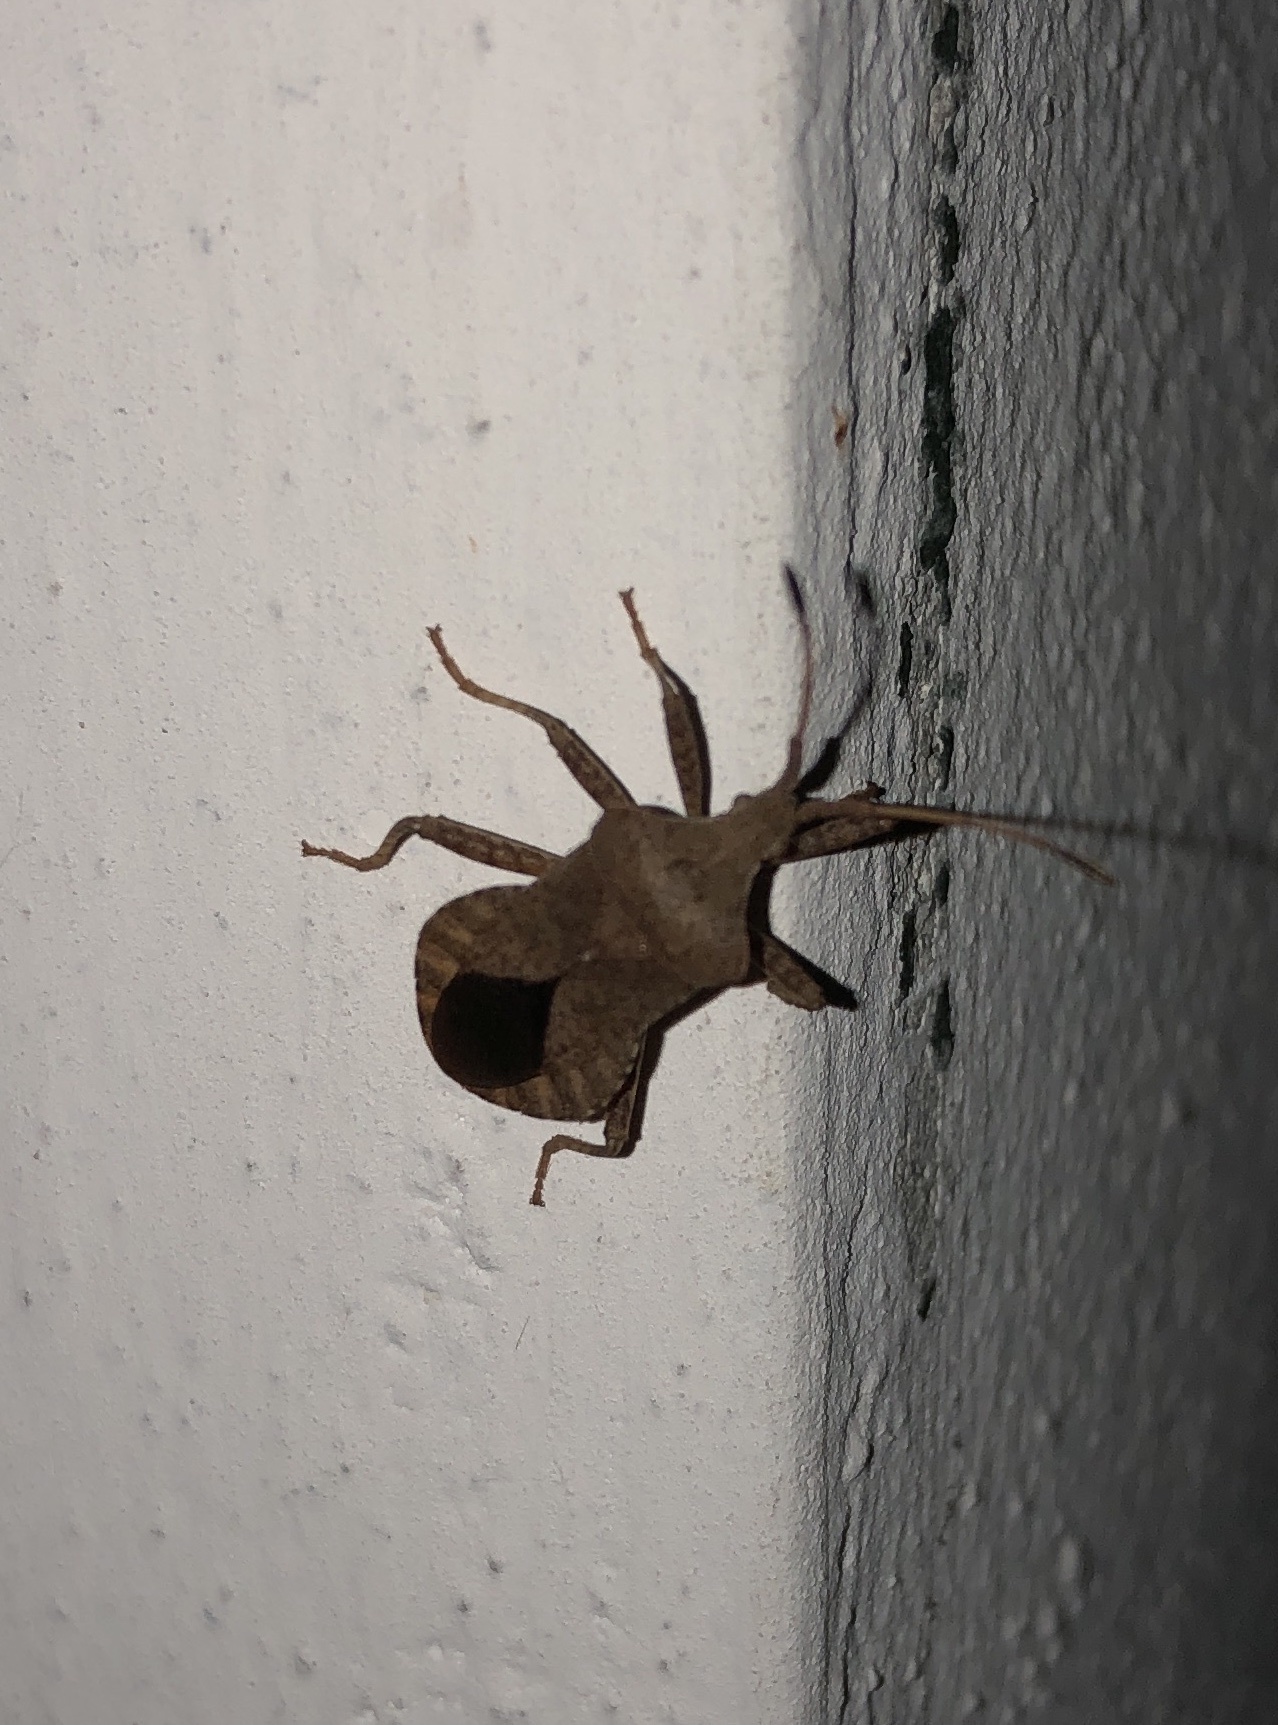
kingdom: Animalia
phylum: Arthropoda
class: Insecta
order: Hemiptera
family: Coreidae
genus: Coreus
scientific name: Coreus marginatus
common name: Dock bug
